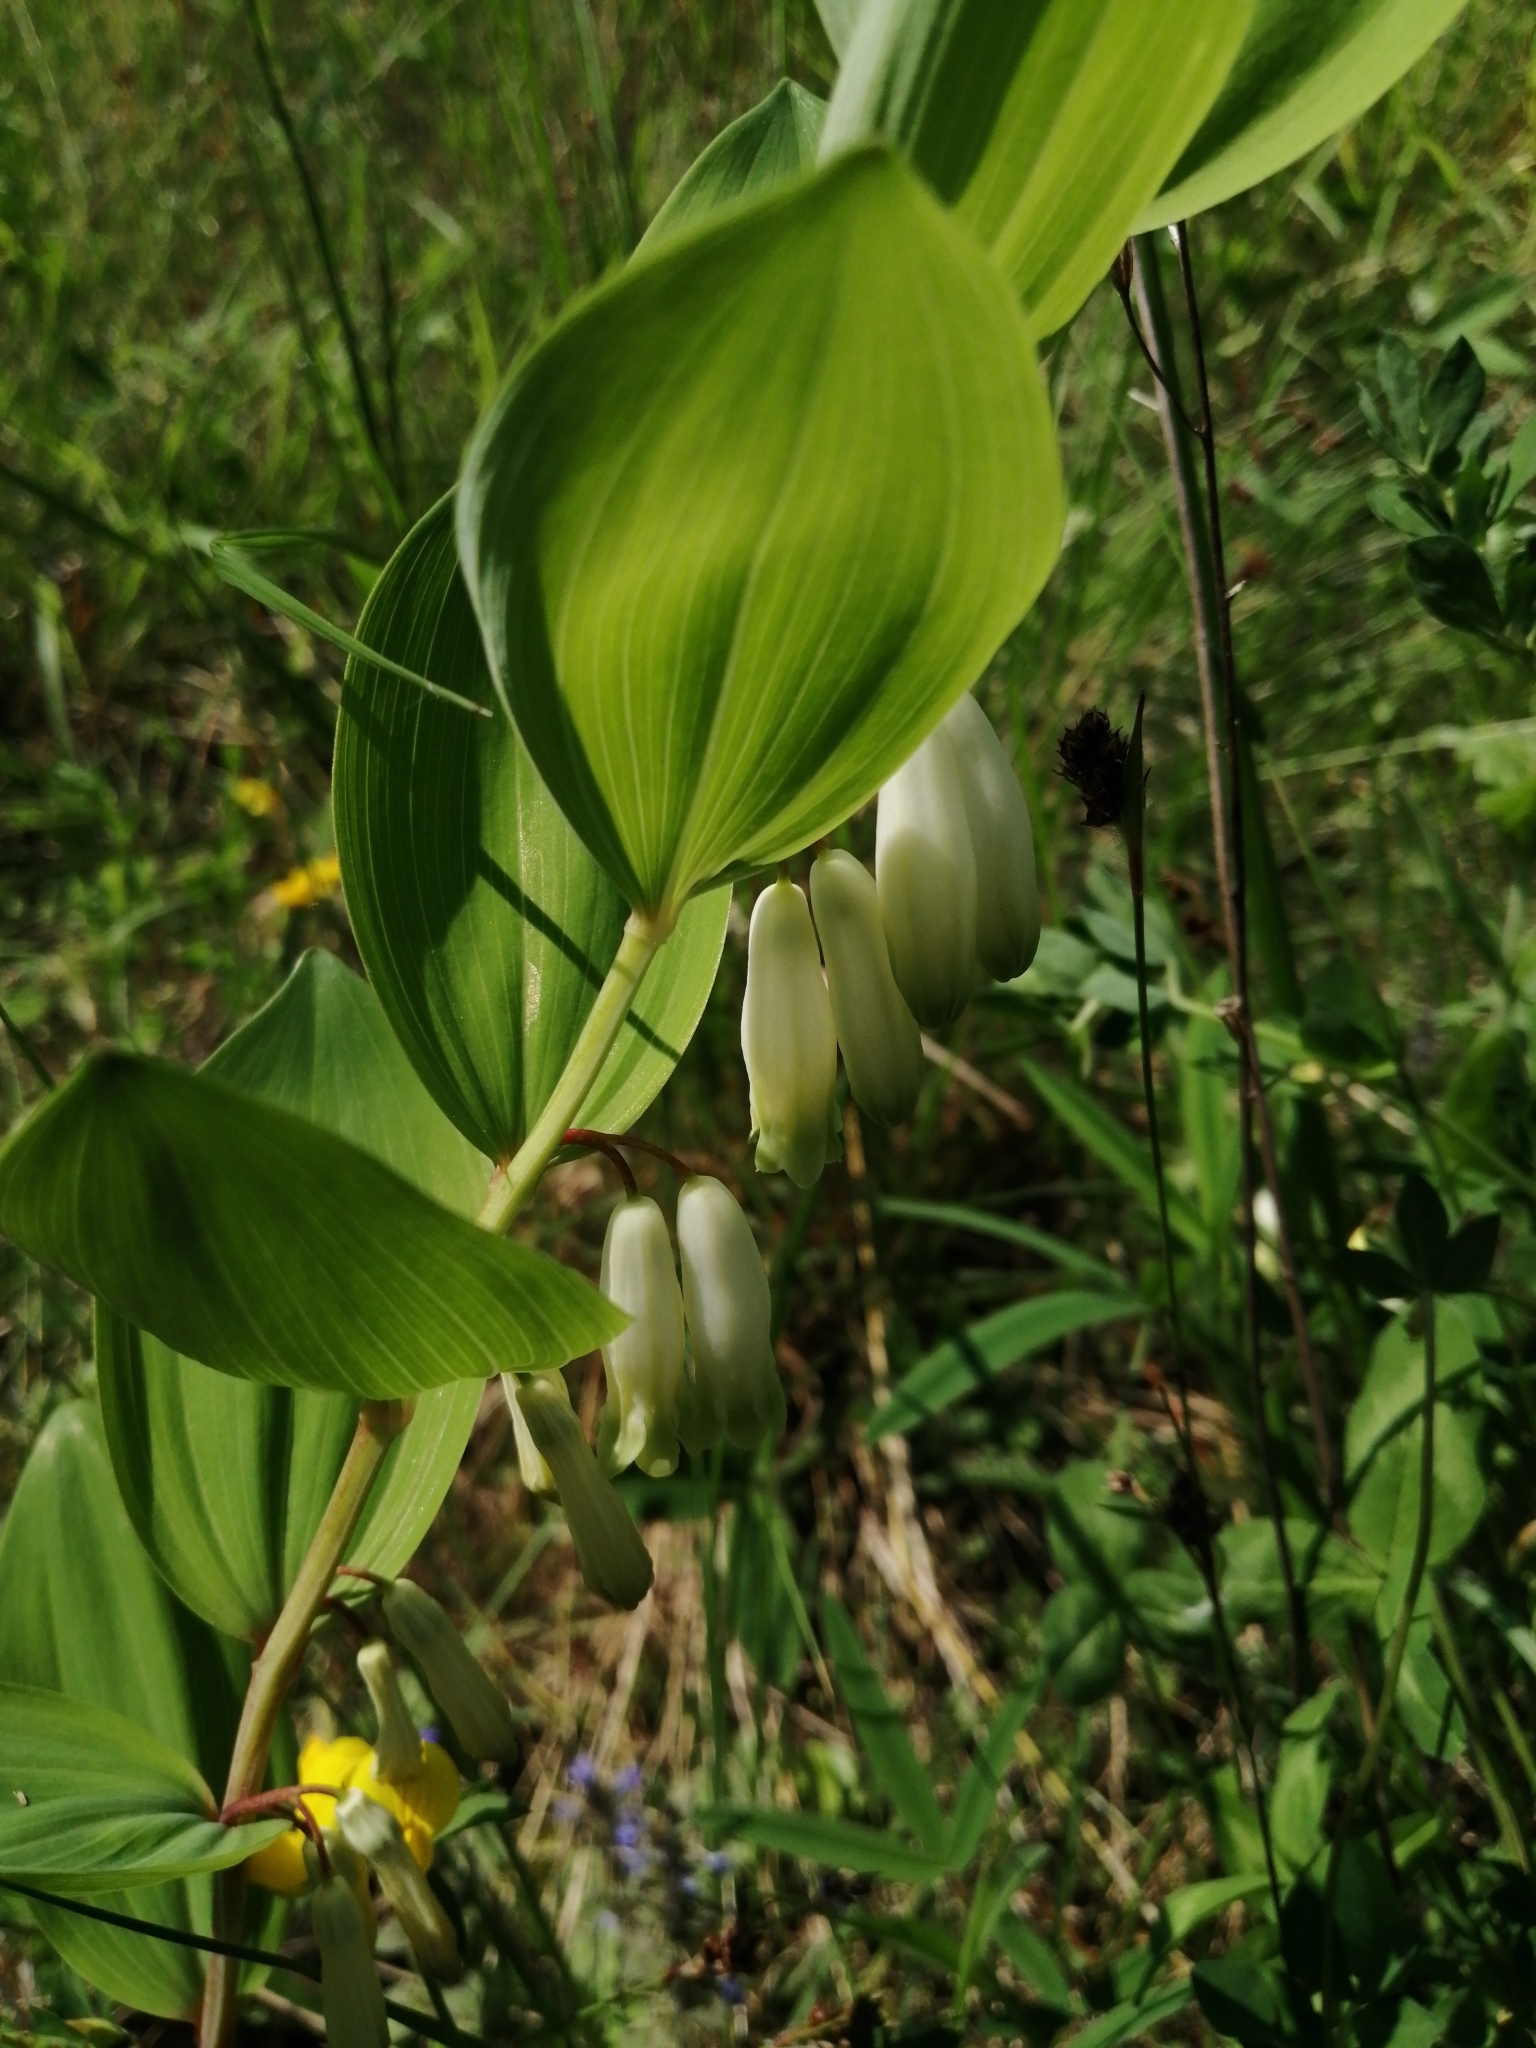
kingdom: Plantae
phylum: Tracheophyta
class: Liliopsida
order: Asparagales
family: Asparagaceae
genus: Polygonatum
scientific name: Polygonatum odoratum
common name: Angular solomon's-seal
